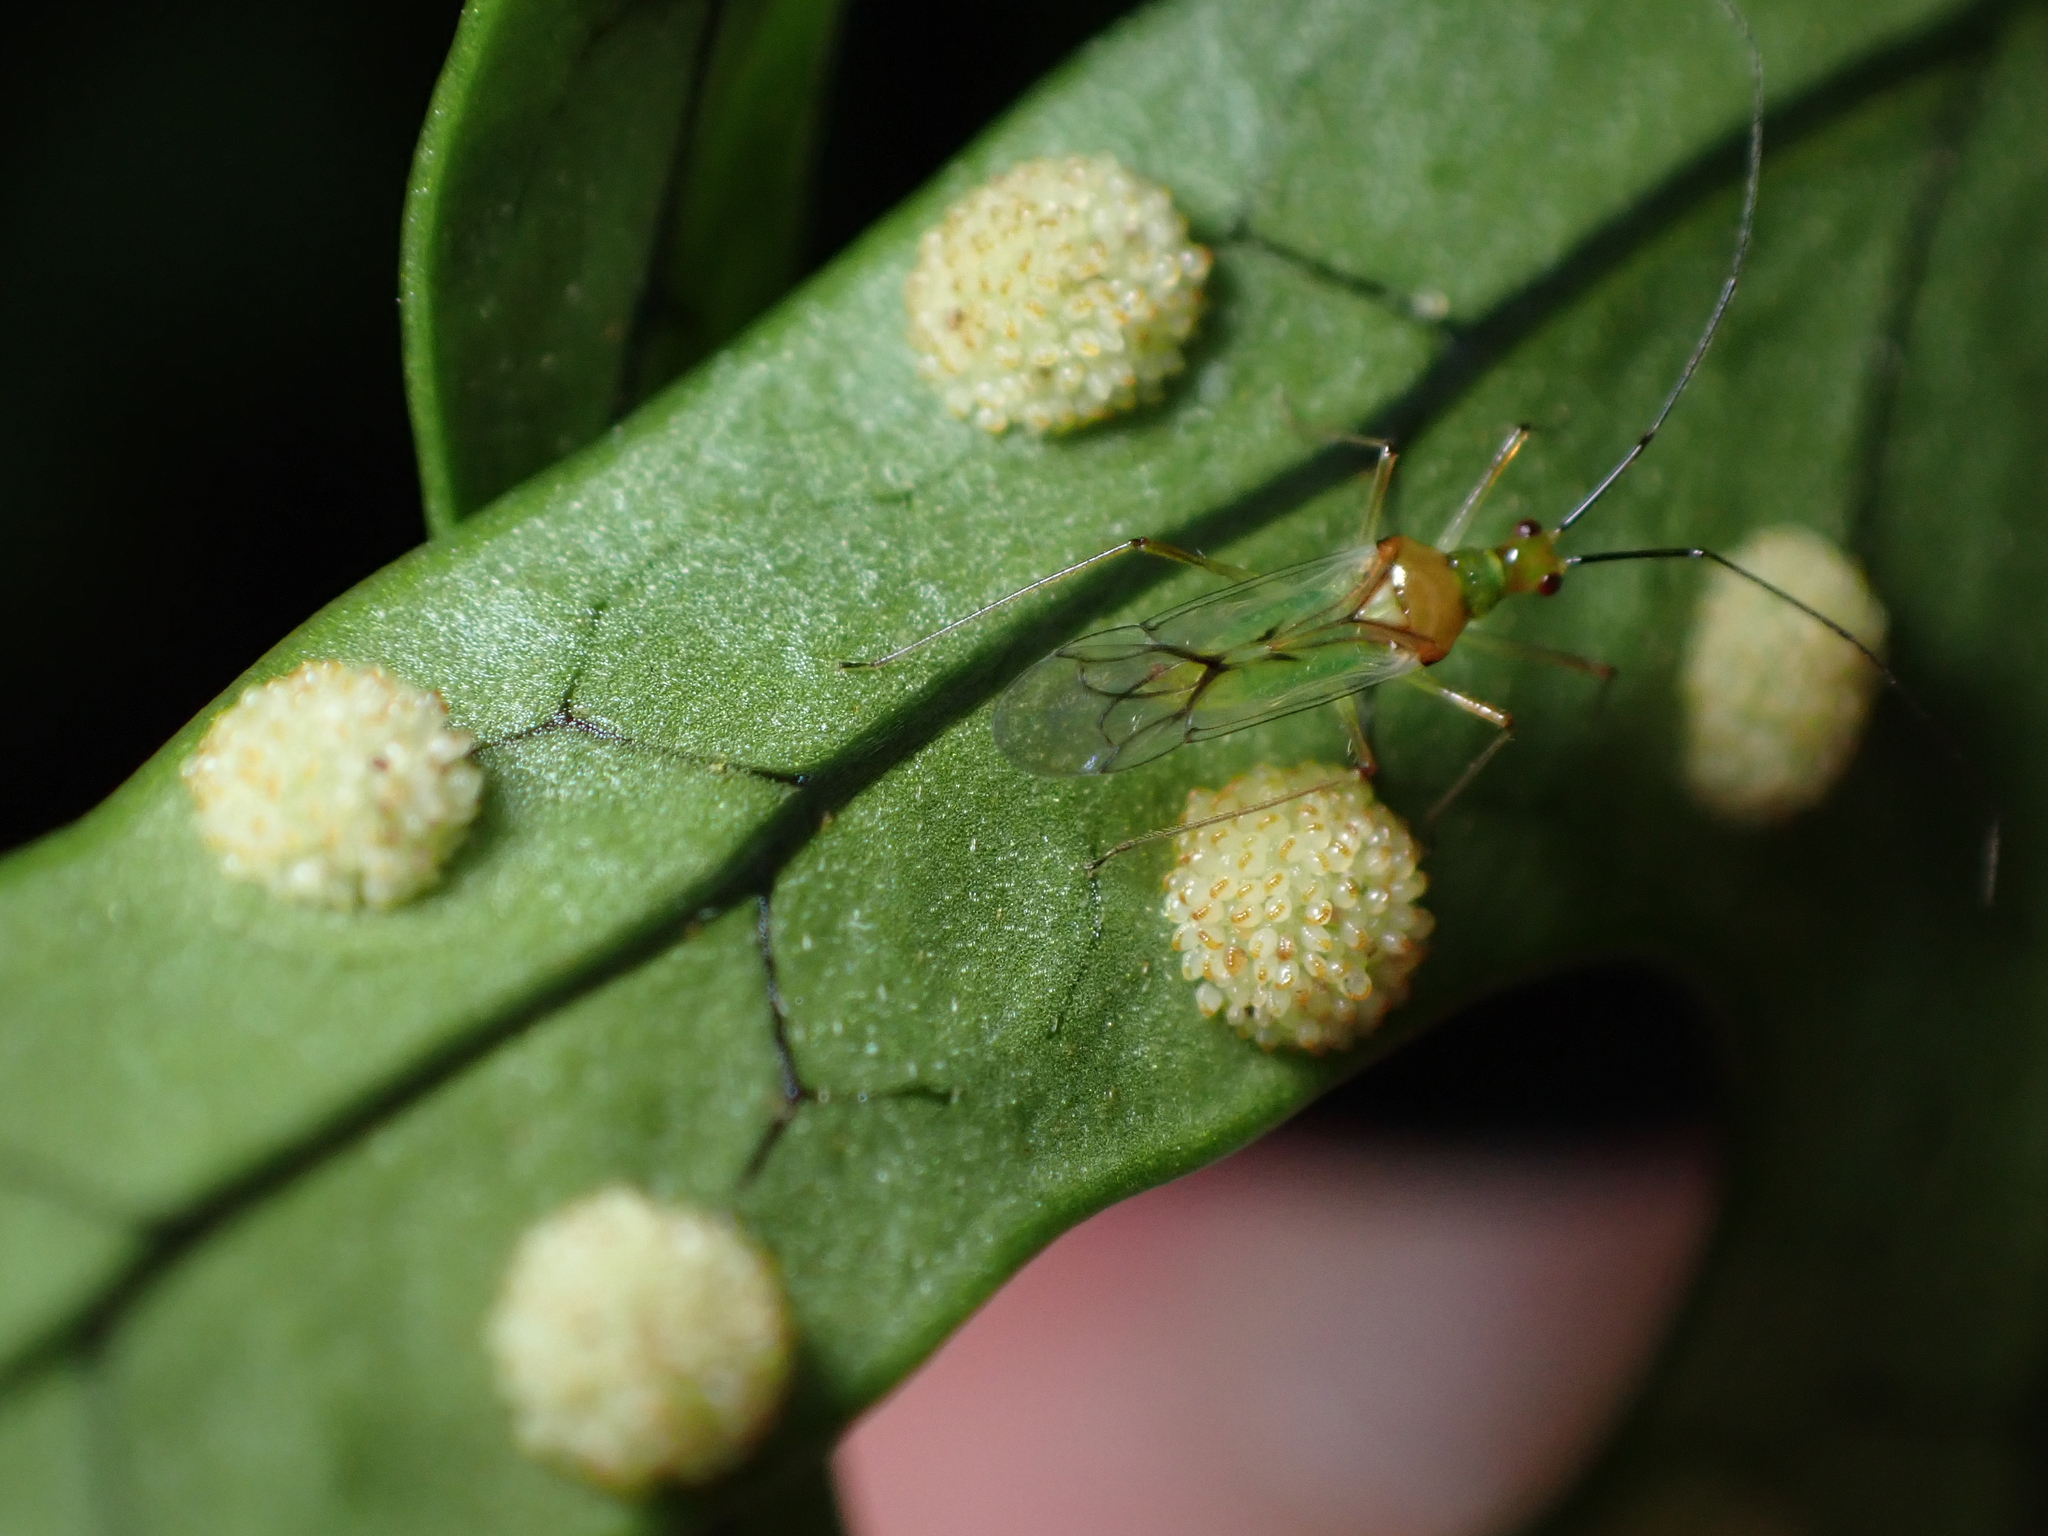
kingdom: Animalia
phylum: Arthropoda
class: Insecta
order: Hemiptera
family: Miridae
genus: Felisacus
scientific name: Felisacus elegantulus
